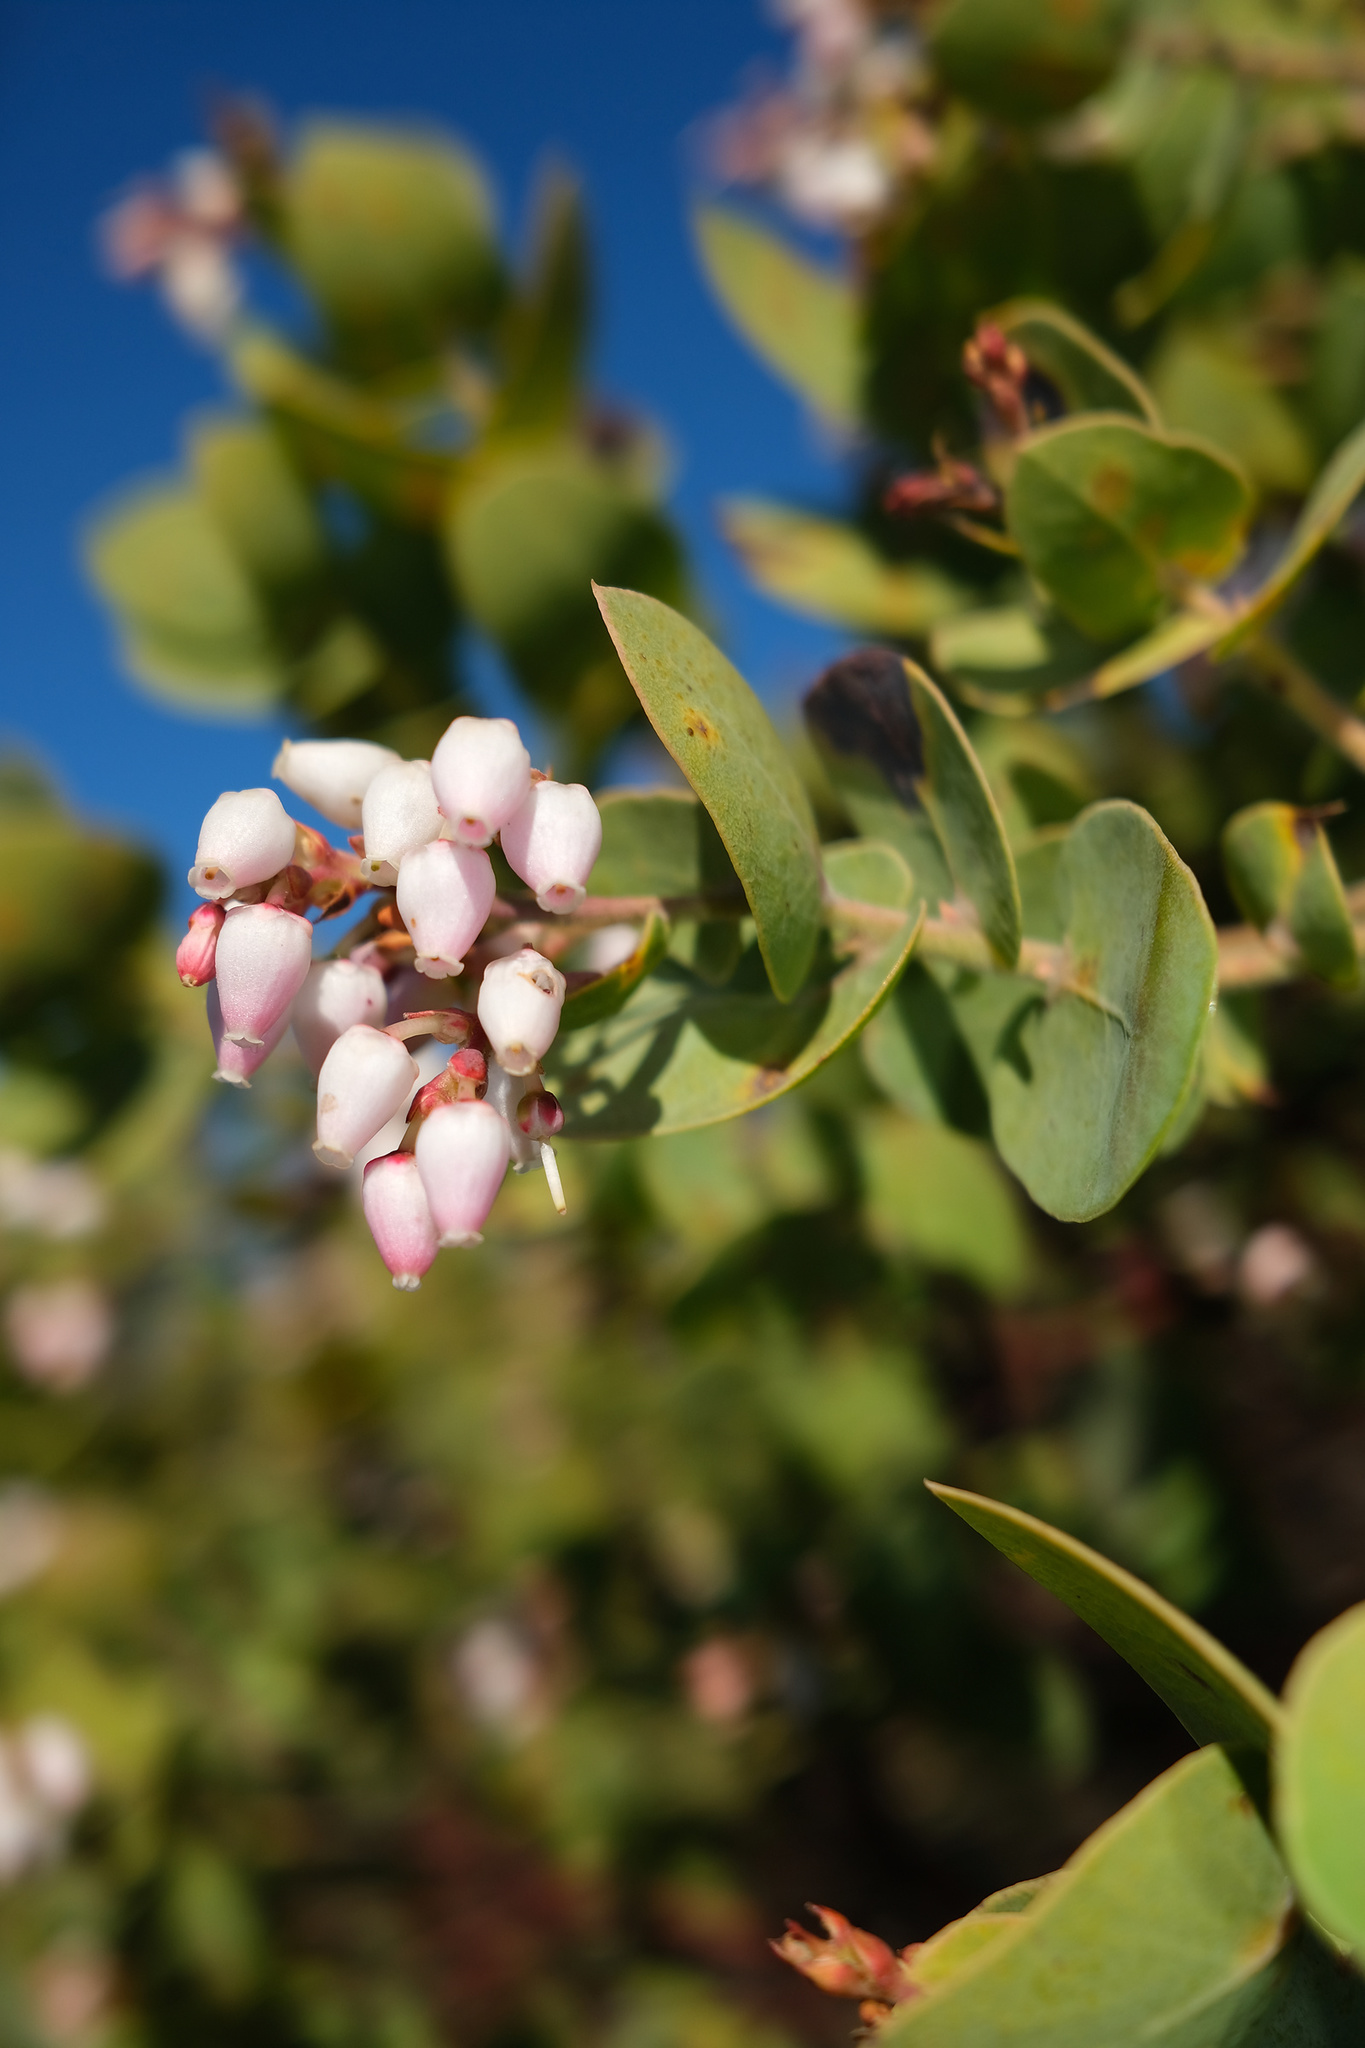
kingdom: Plantae
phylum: Tracheophyta
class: Magnoliopsida
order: Ericales
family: Ericaceae
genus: Arctostaphylos
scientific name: Arctostaphylos gabilanensis
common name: Gabilan manzanita
